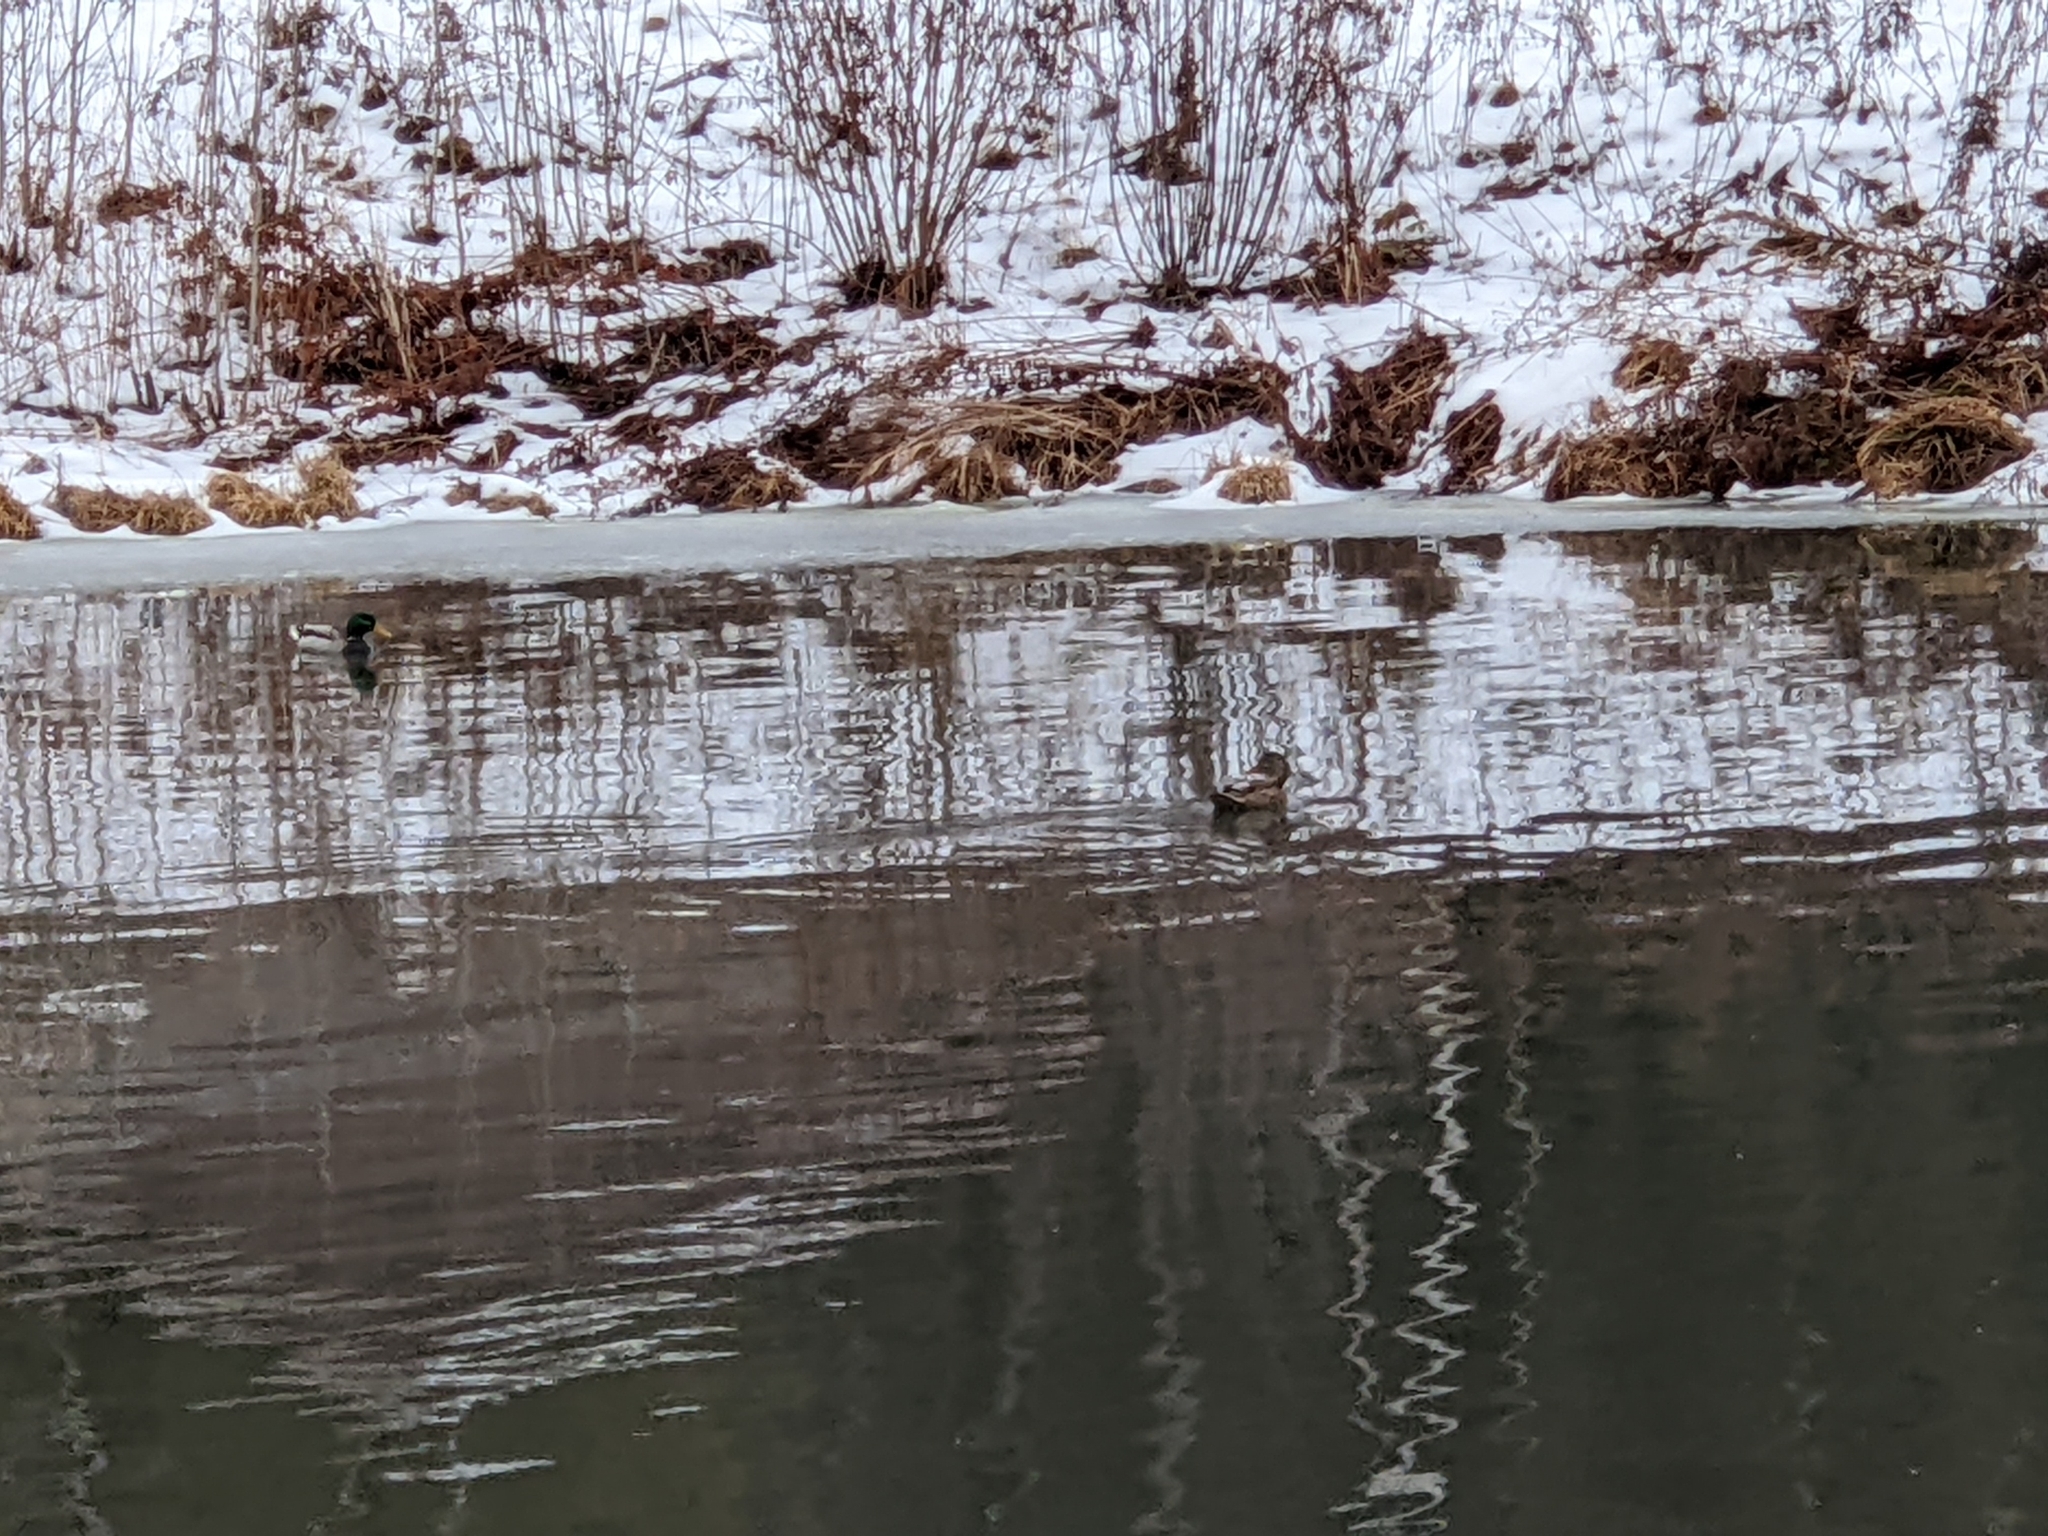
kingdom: Animalia
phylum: Chordata
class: Aves
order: Anseriformes
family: Anatidae
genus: Anas
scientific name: Anas platyrhynchos
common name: Mallard
